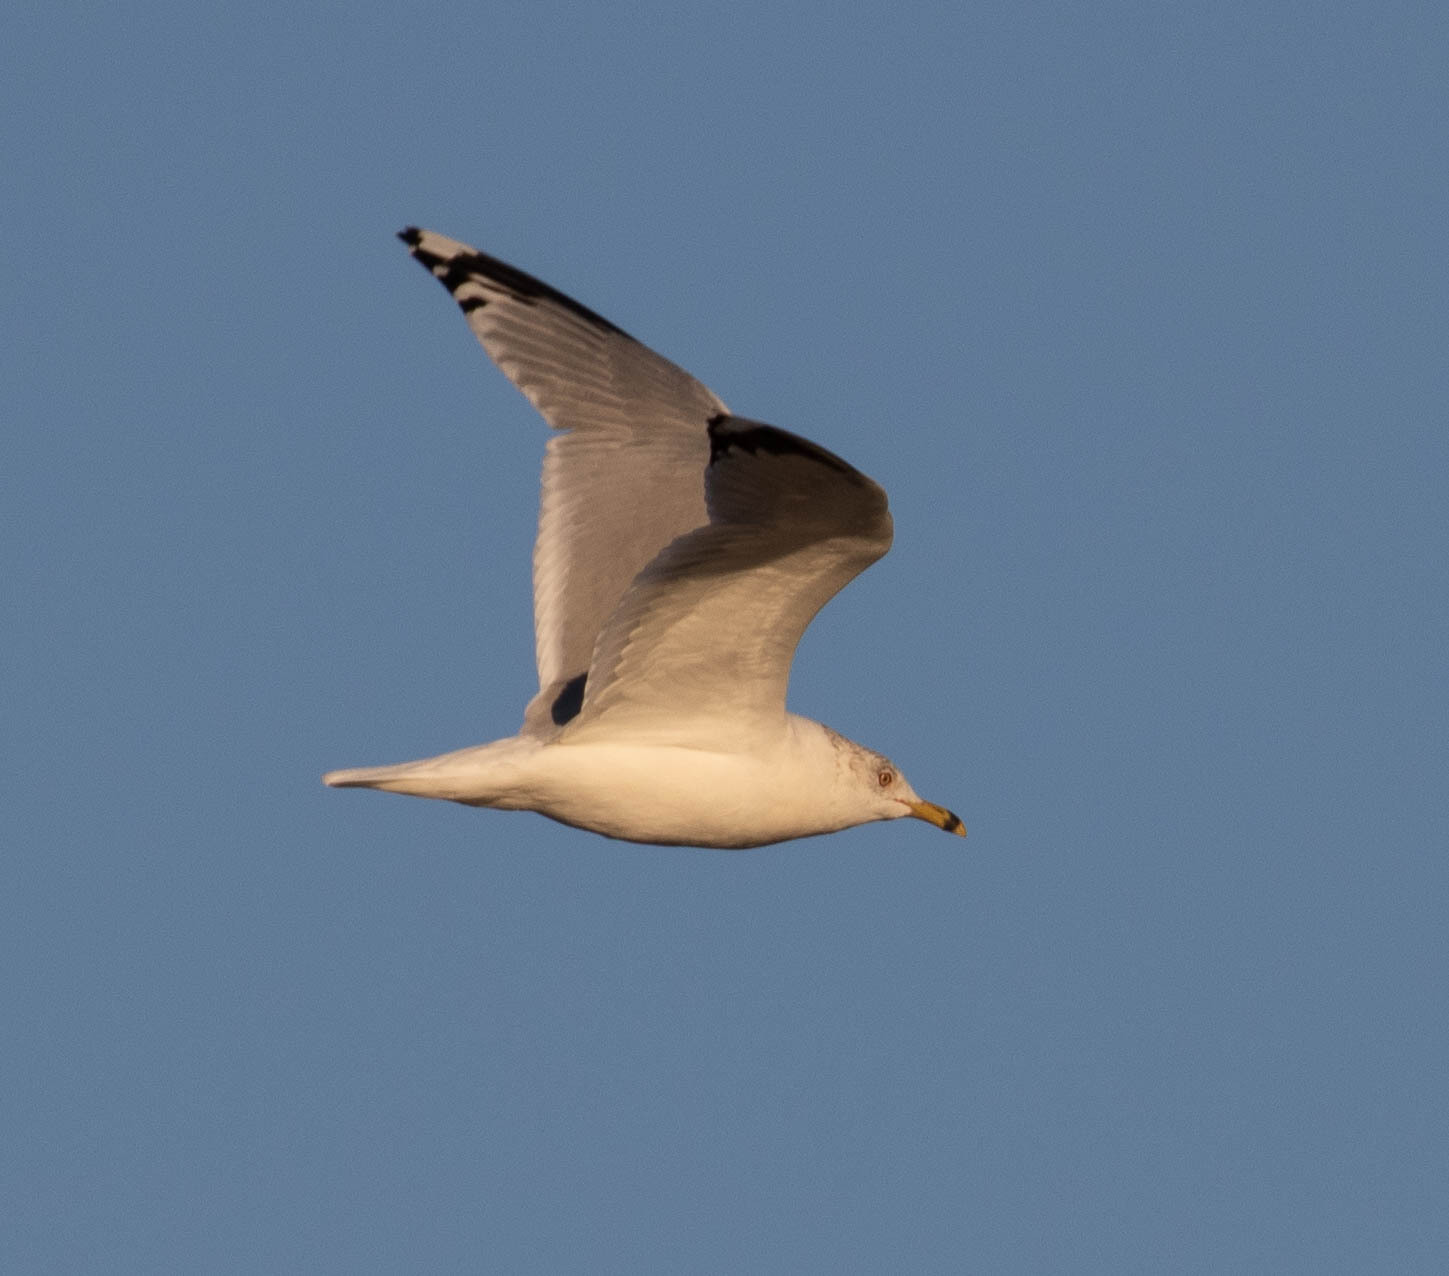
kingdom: Animalia
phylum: Chordata
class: Aves
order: Charadriiformes
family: Laridae
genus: Larus
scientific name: Larus delawarensis
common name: Ring-billed gull
